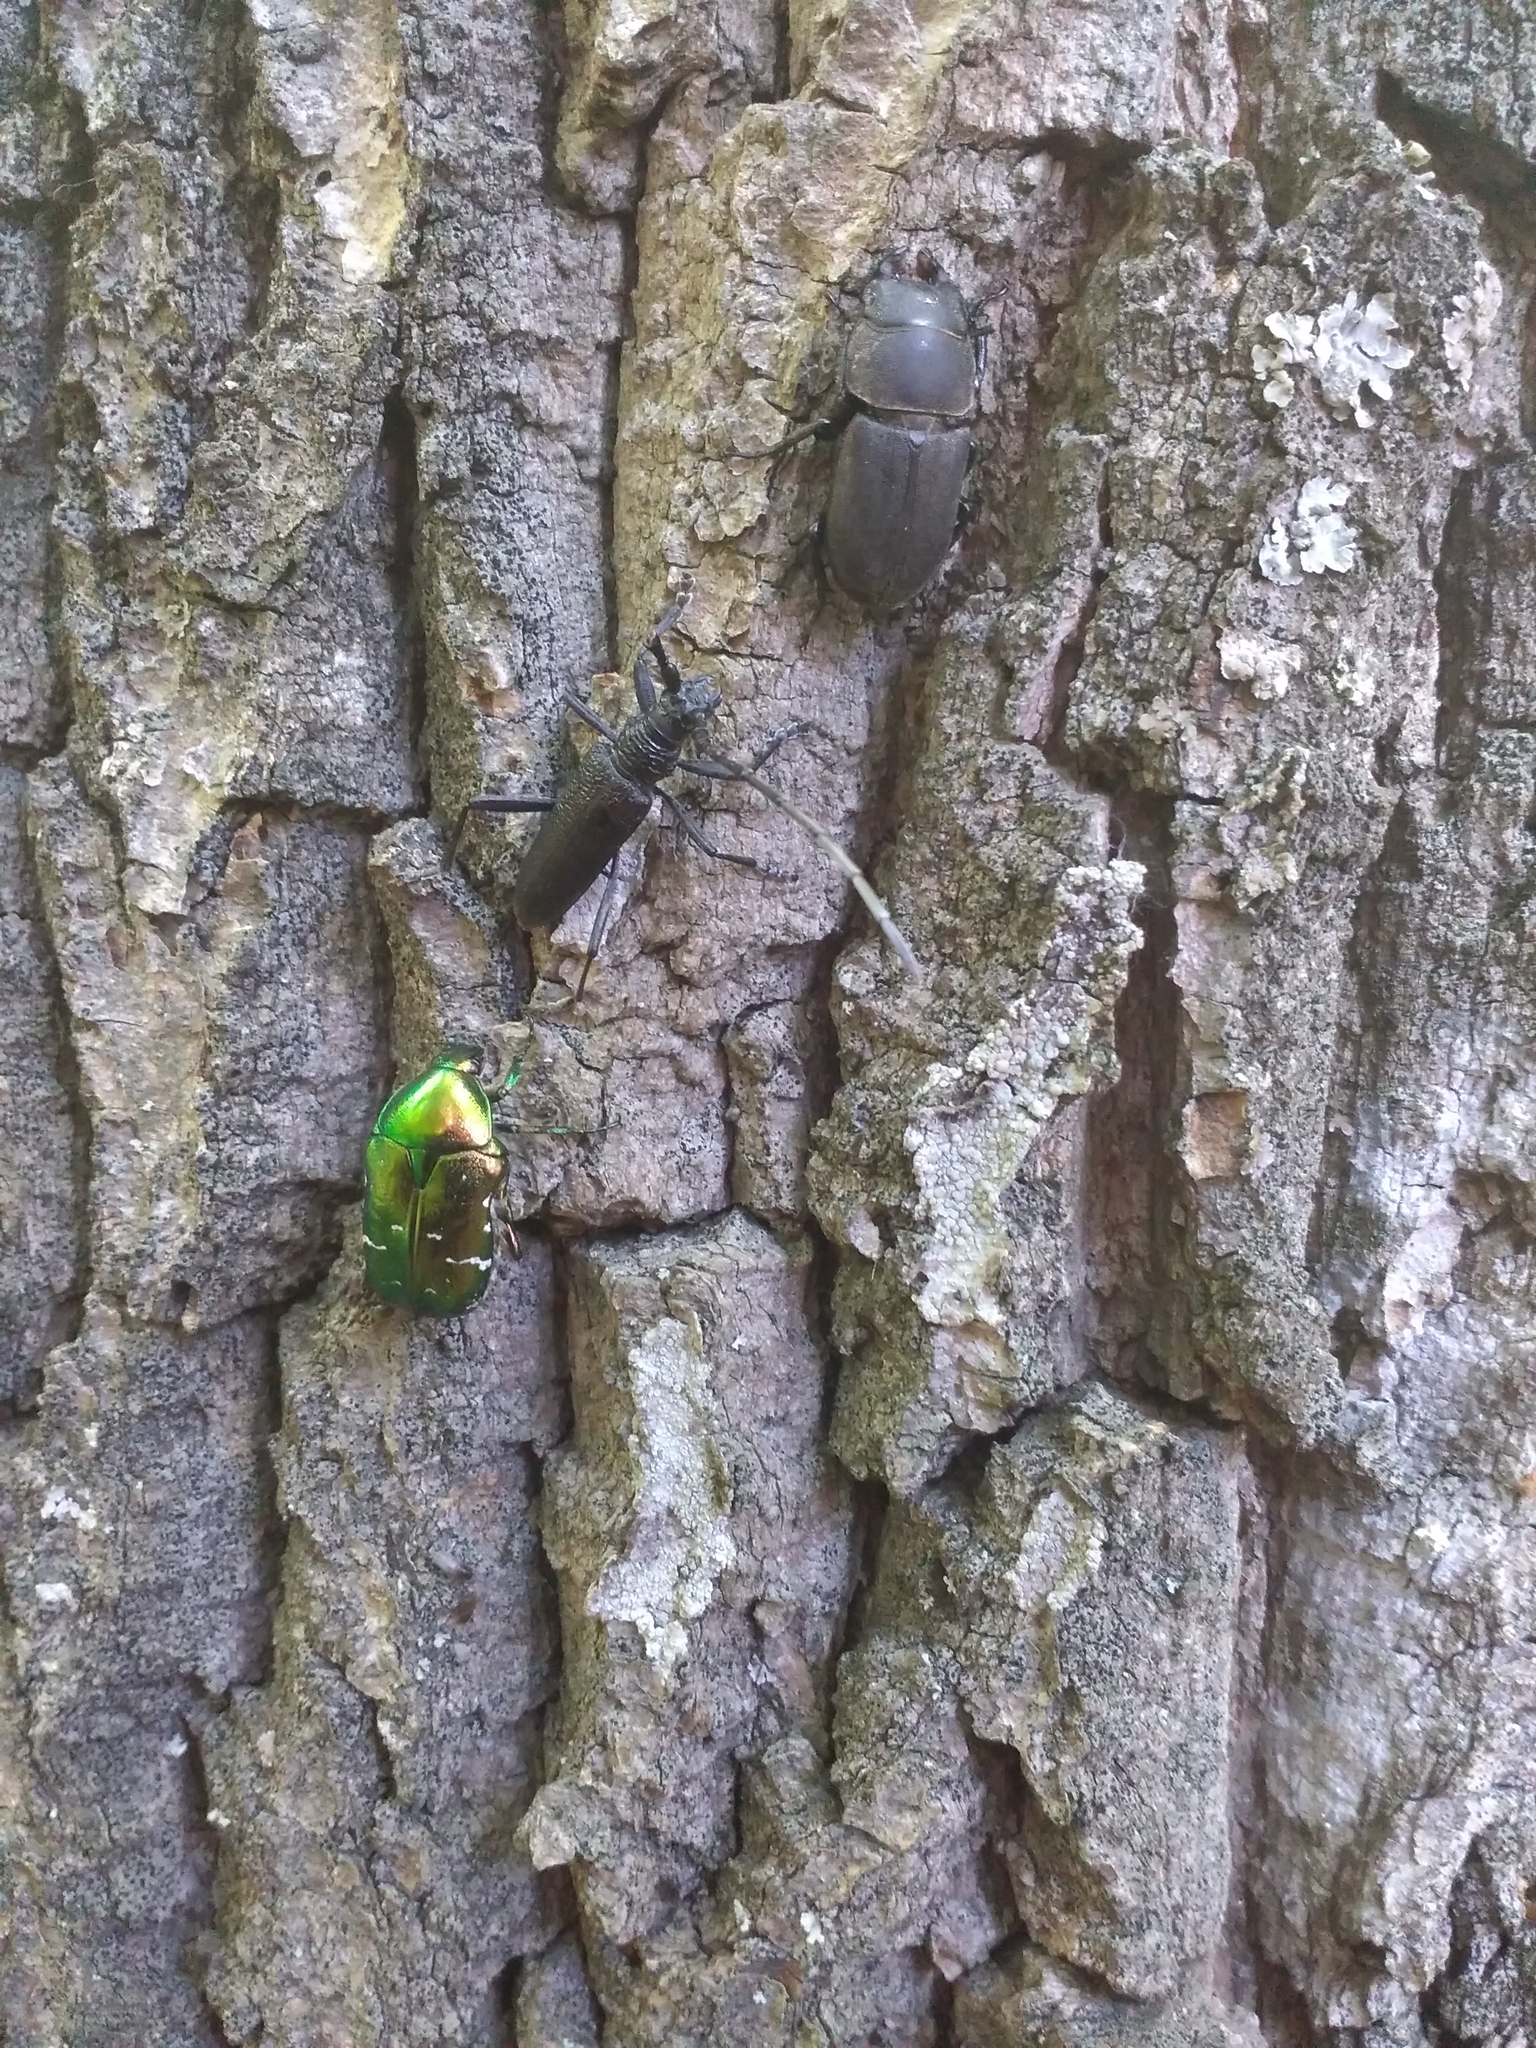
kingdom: Animalia
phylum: Arthropoda
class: Insecta
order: Coleoptera
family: Scarabaeidae
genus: Cetonia
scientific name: Cetonia aurata
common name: Rose chafer
